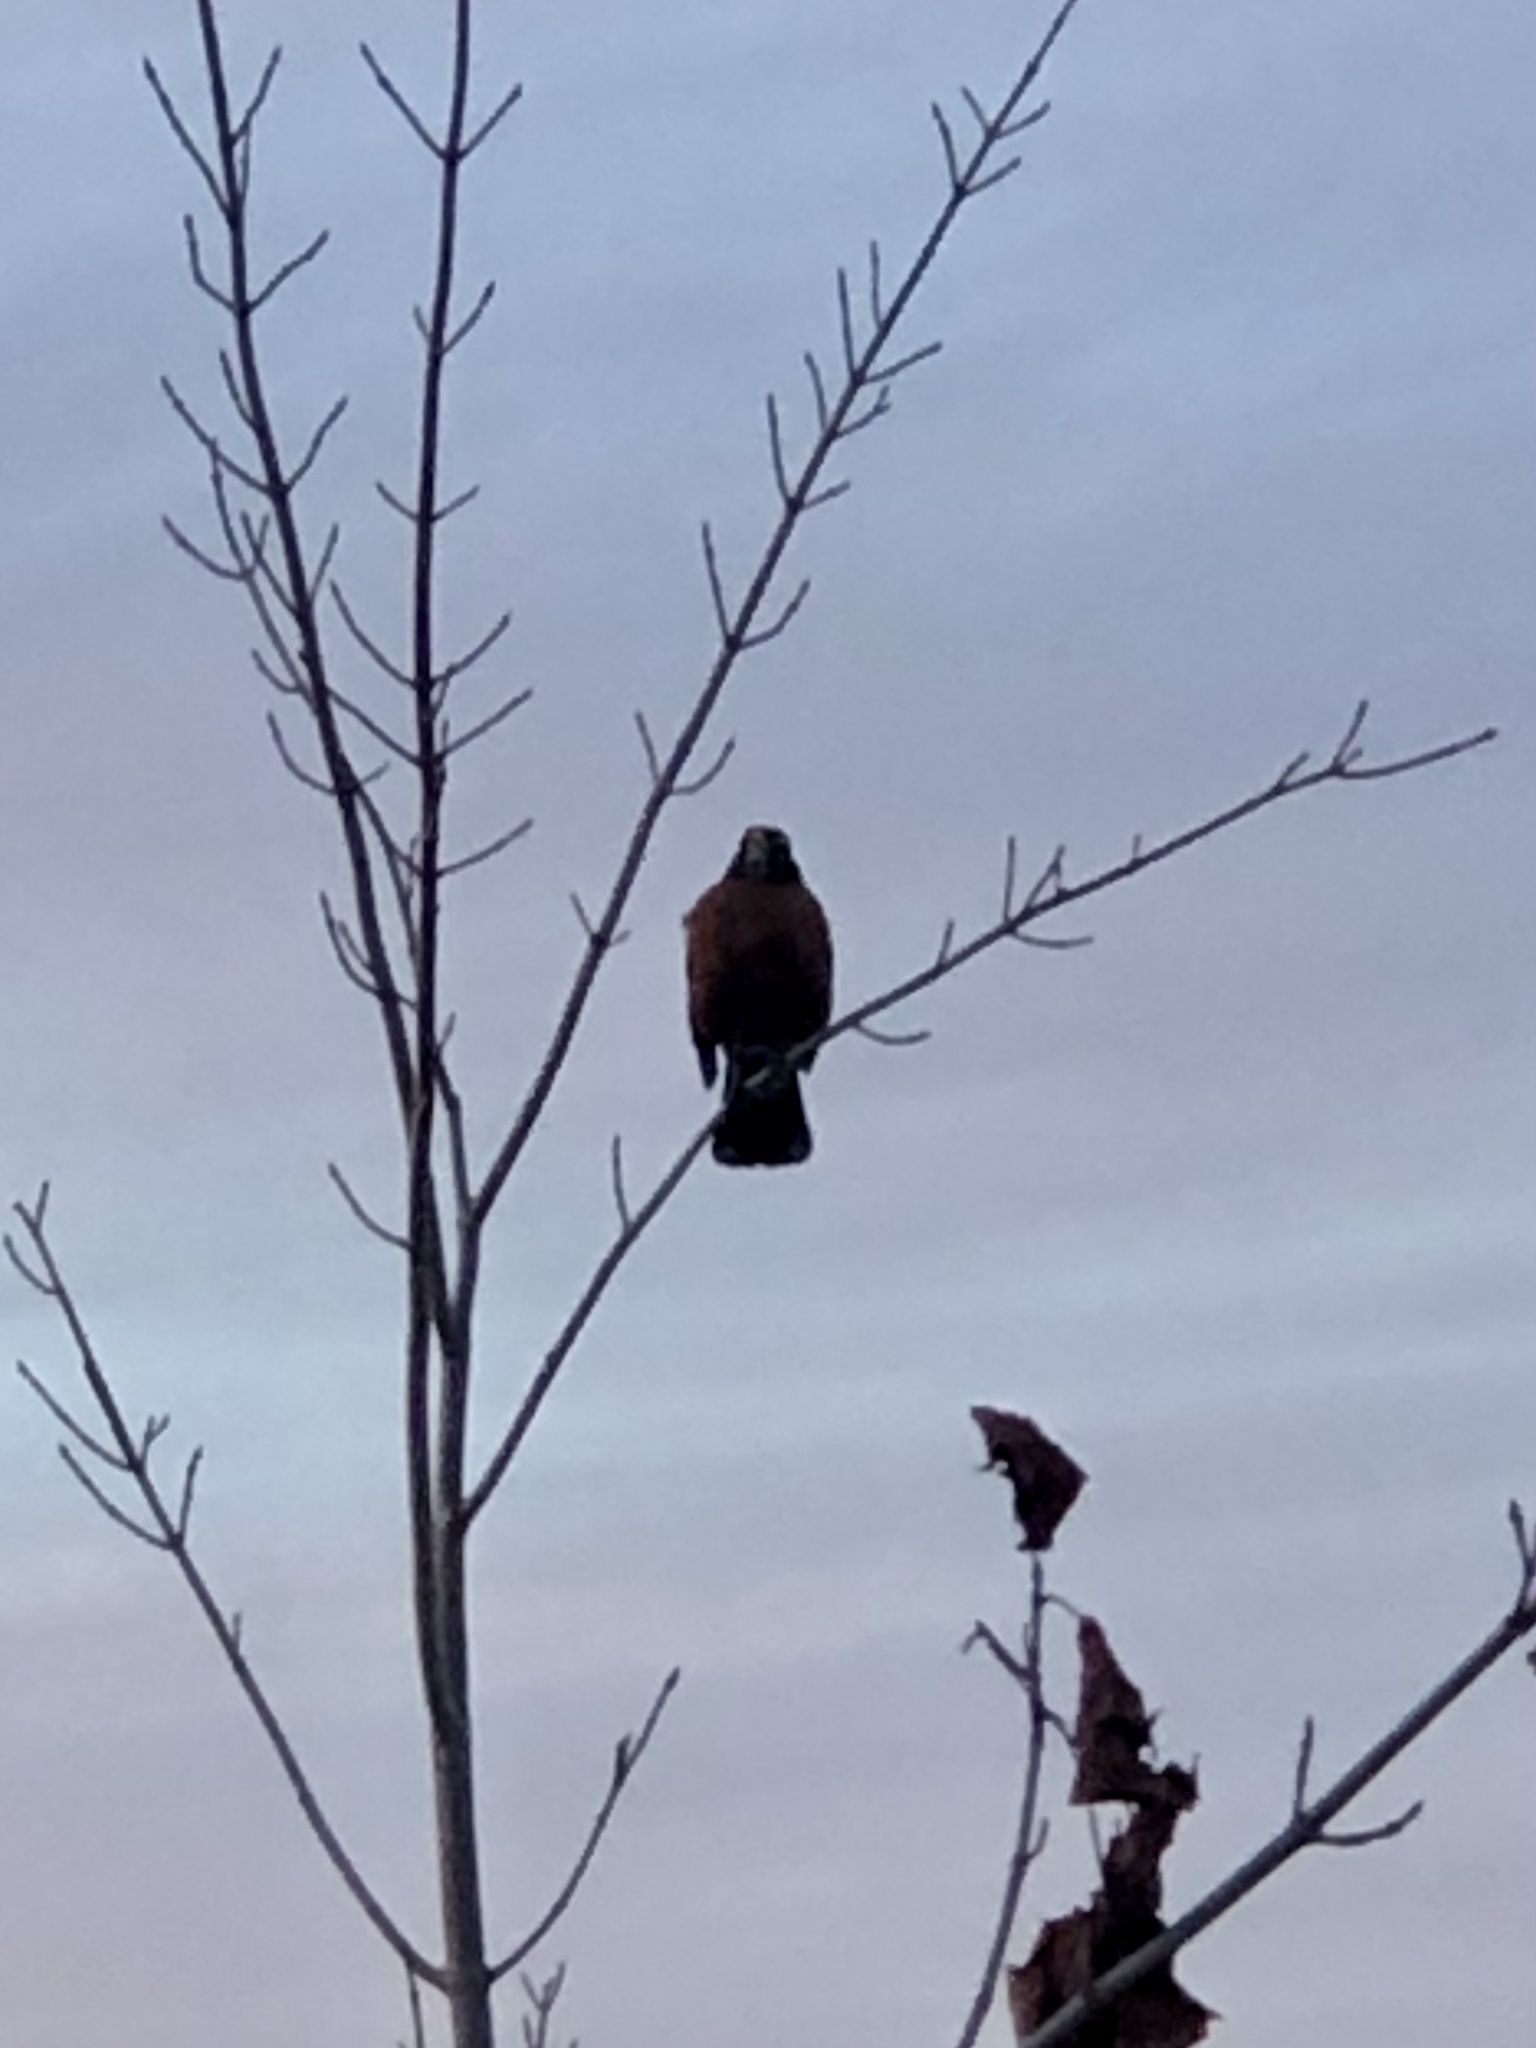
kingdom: Animalia
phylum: Chordata
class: Aves
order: Passeriformes
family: Turdidae
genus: Turdus
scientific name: Turdus migratorius
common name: American robin
